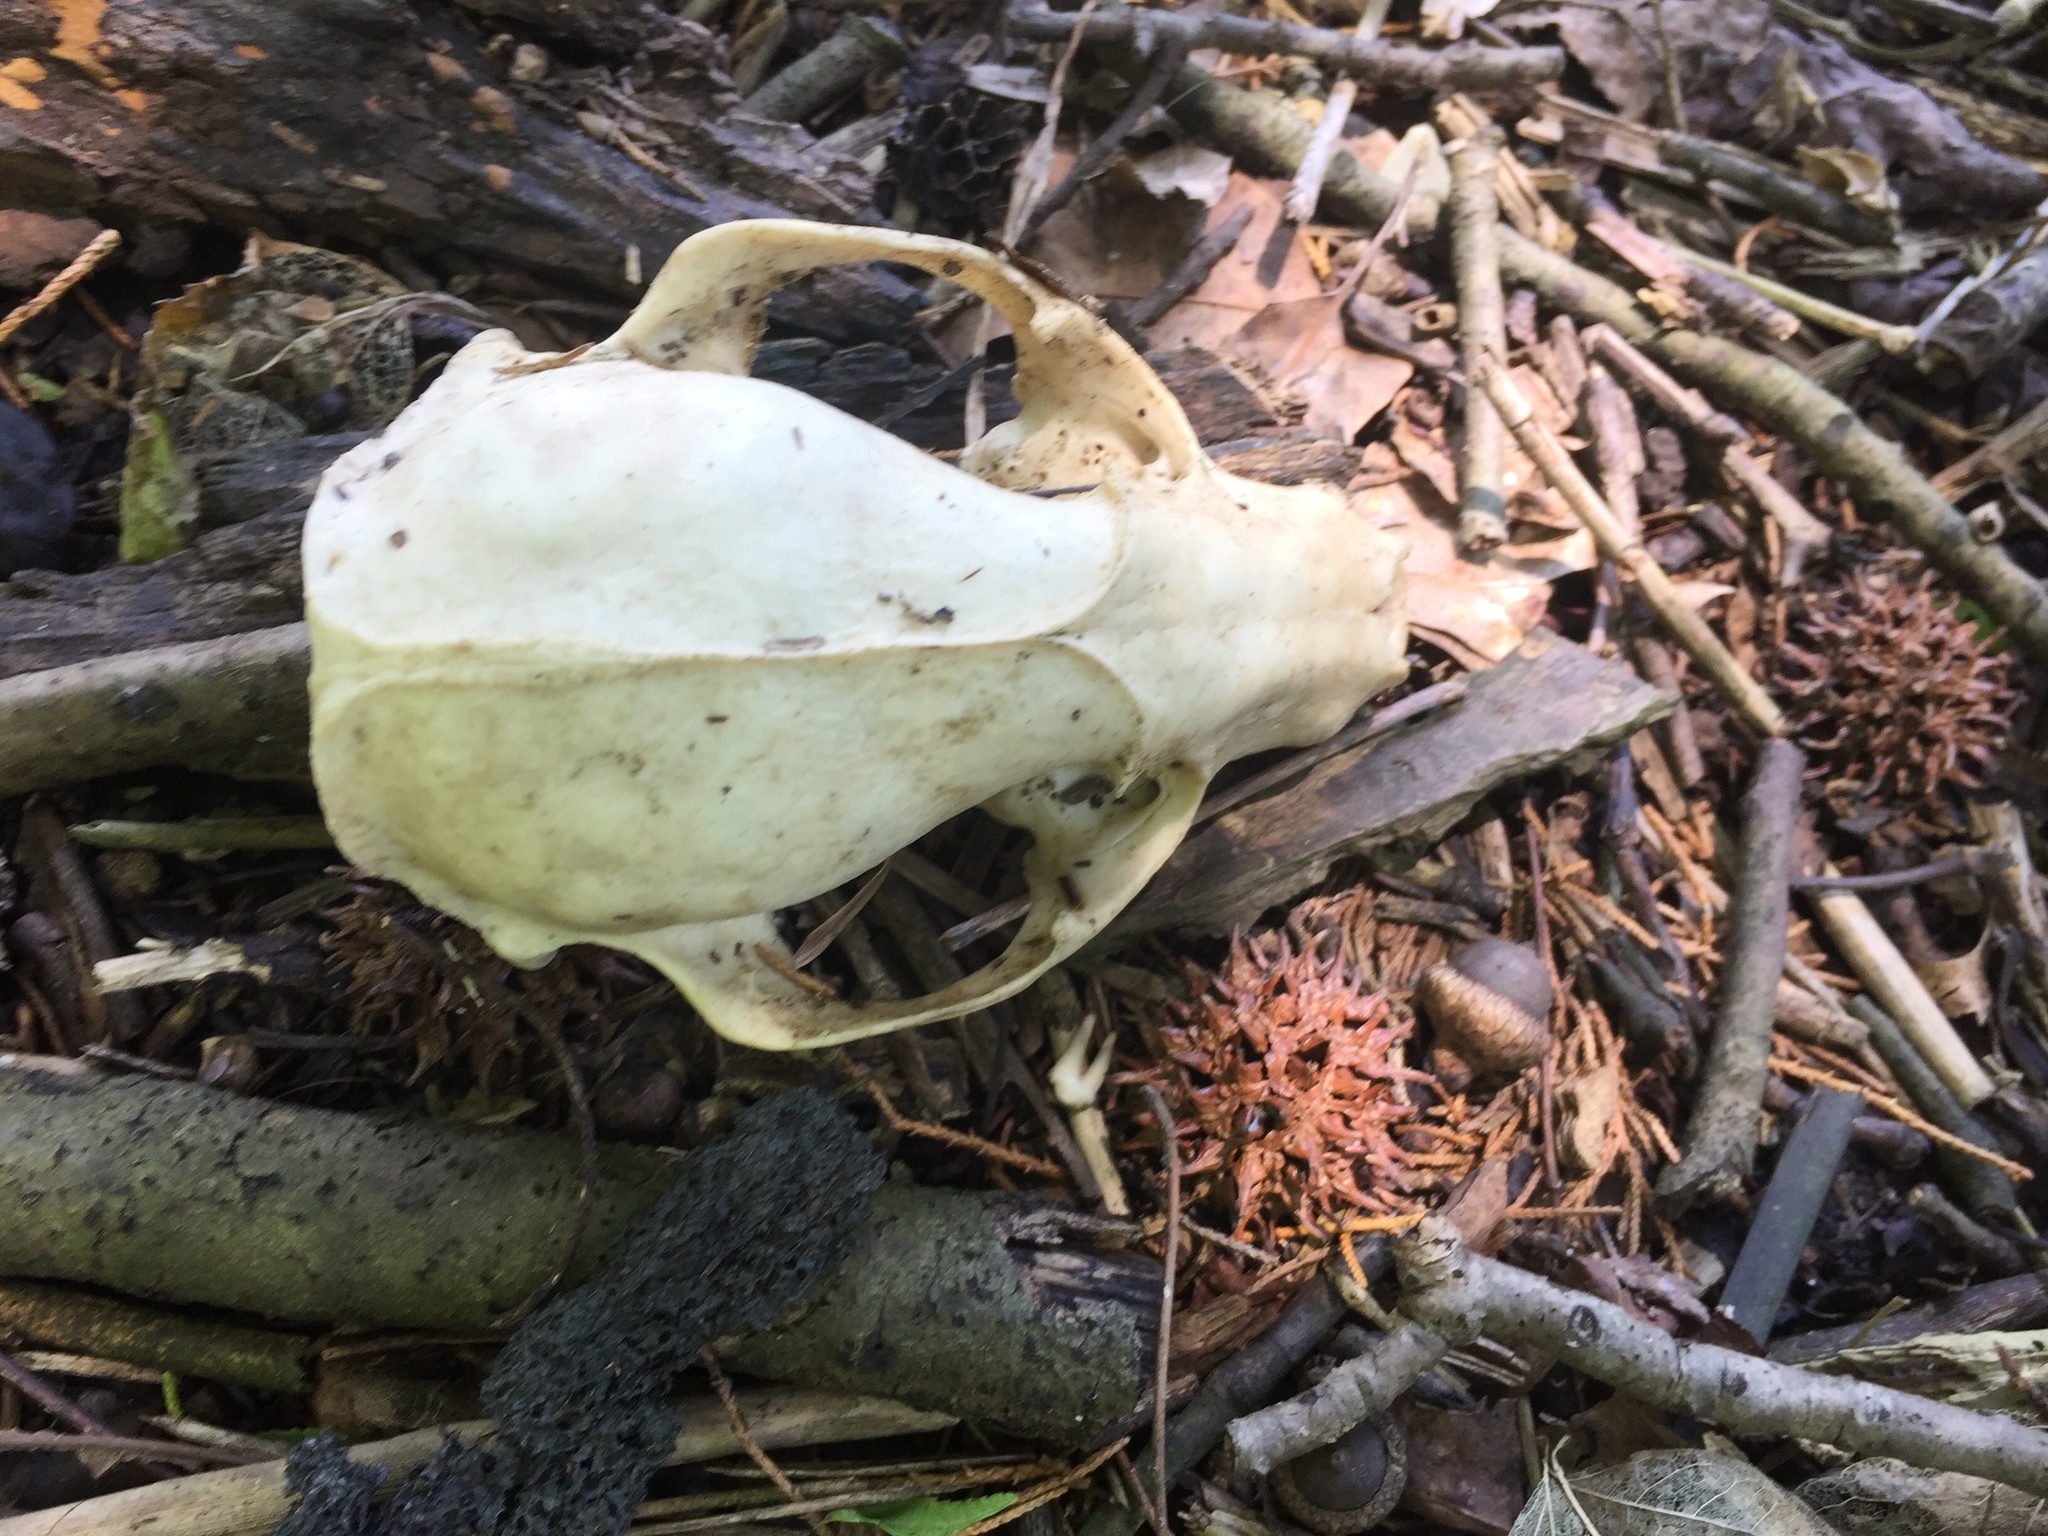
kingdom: Animalia
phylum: Chordata
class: Mammalia
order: Carnivora
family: Procyonidae
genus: Procyon
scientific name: Procyon lotor
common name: Raccoon
